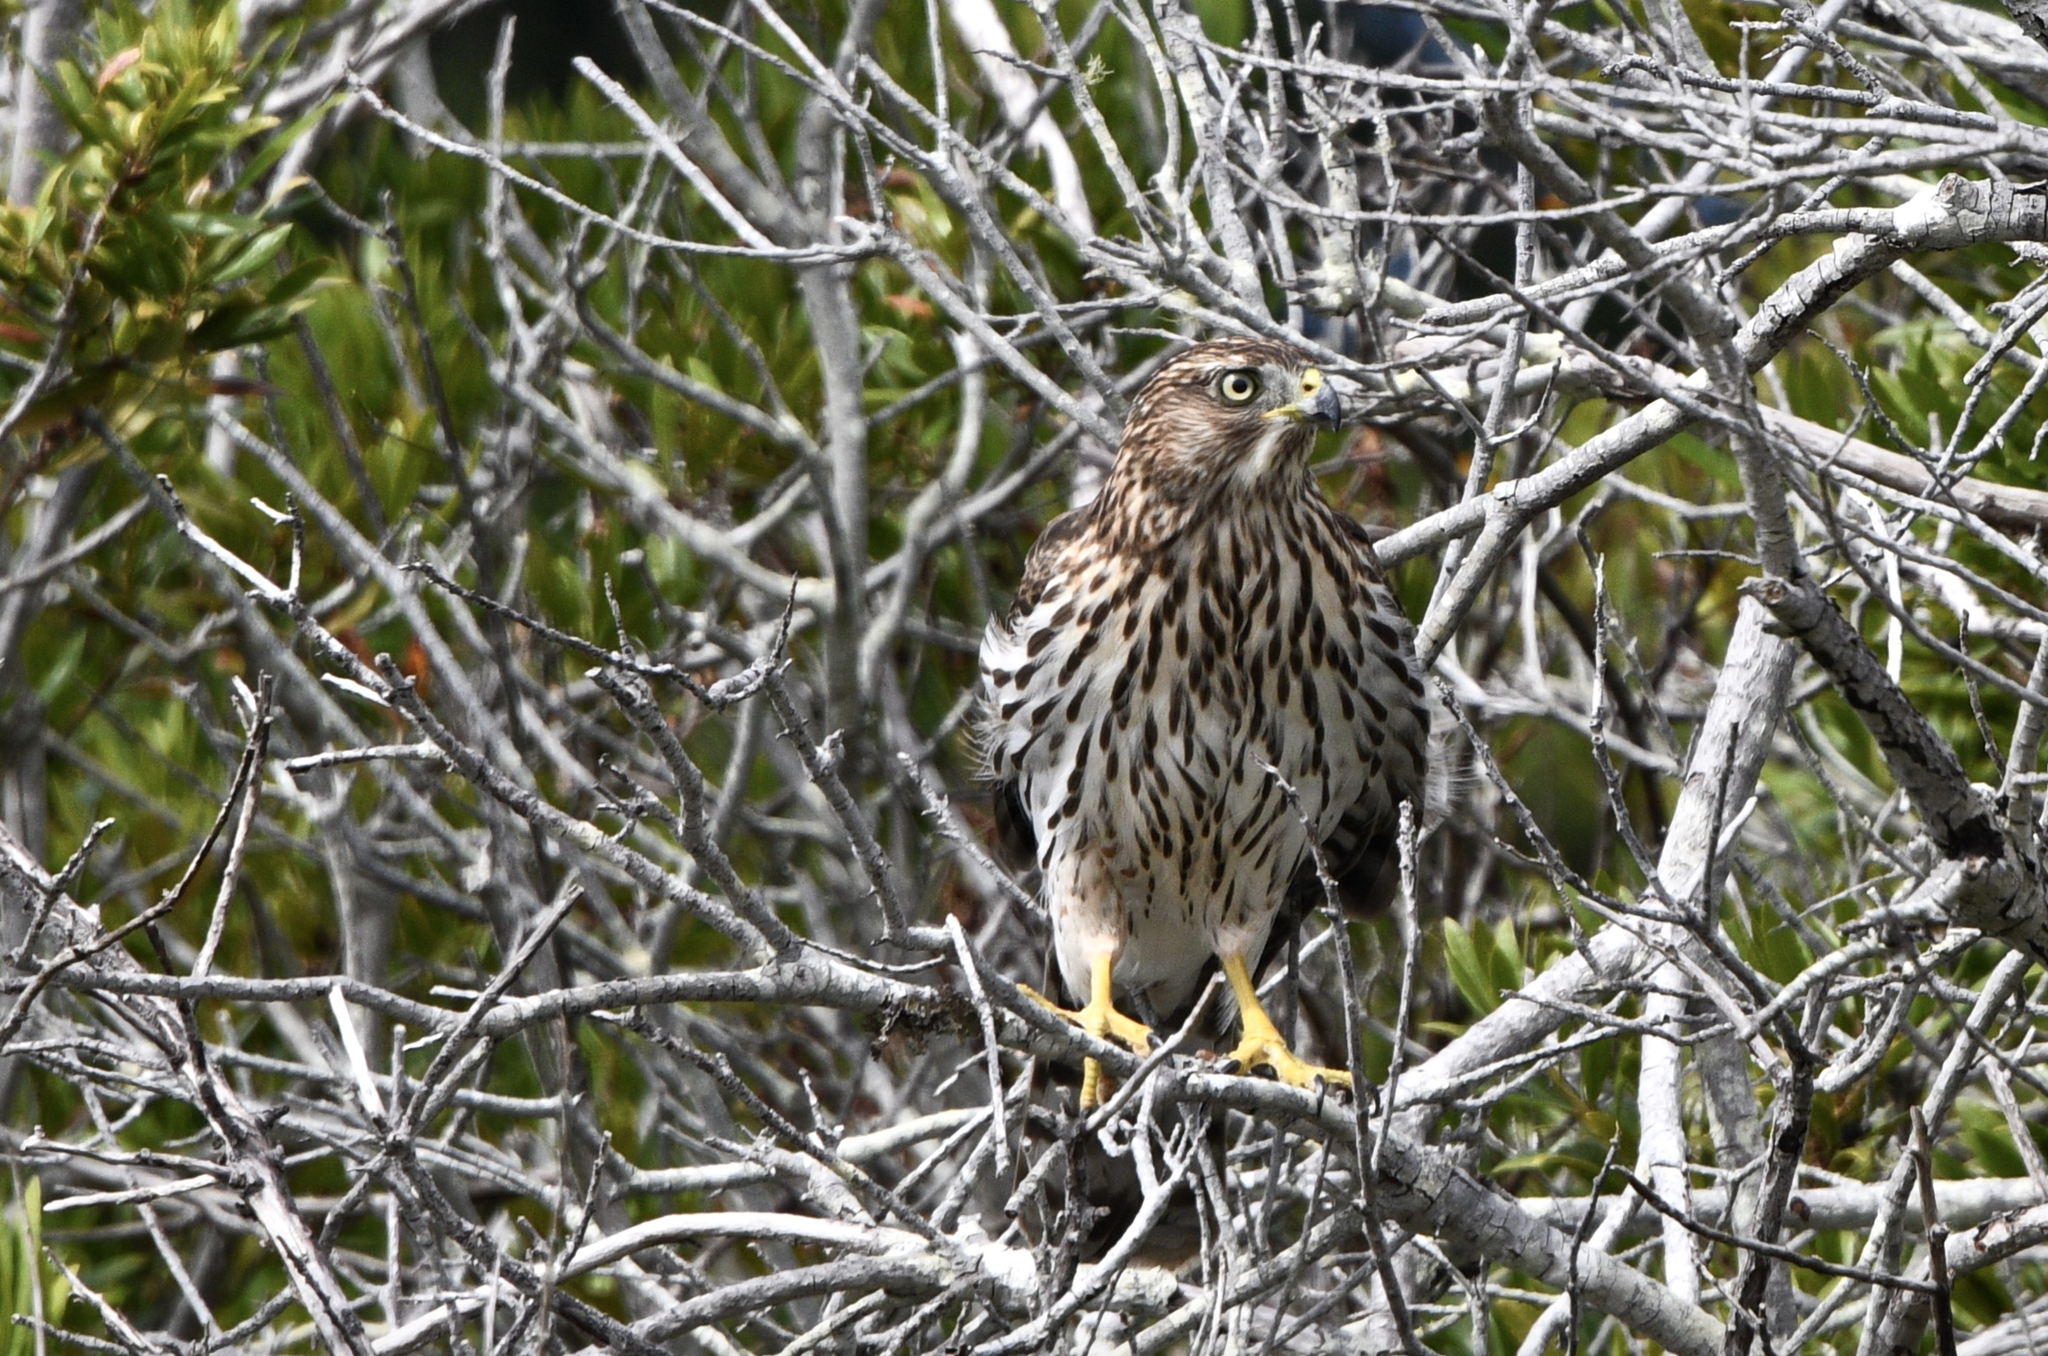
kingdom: Animalia
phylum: Chordata
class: Aves
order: Accipitriformes
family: Accipitridae
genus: Accipiter
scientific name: Accipiter cooperii
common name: Cooper's hawk
